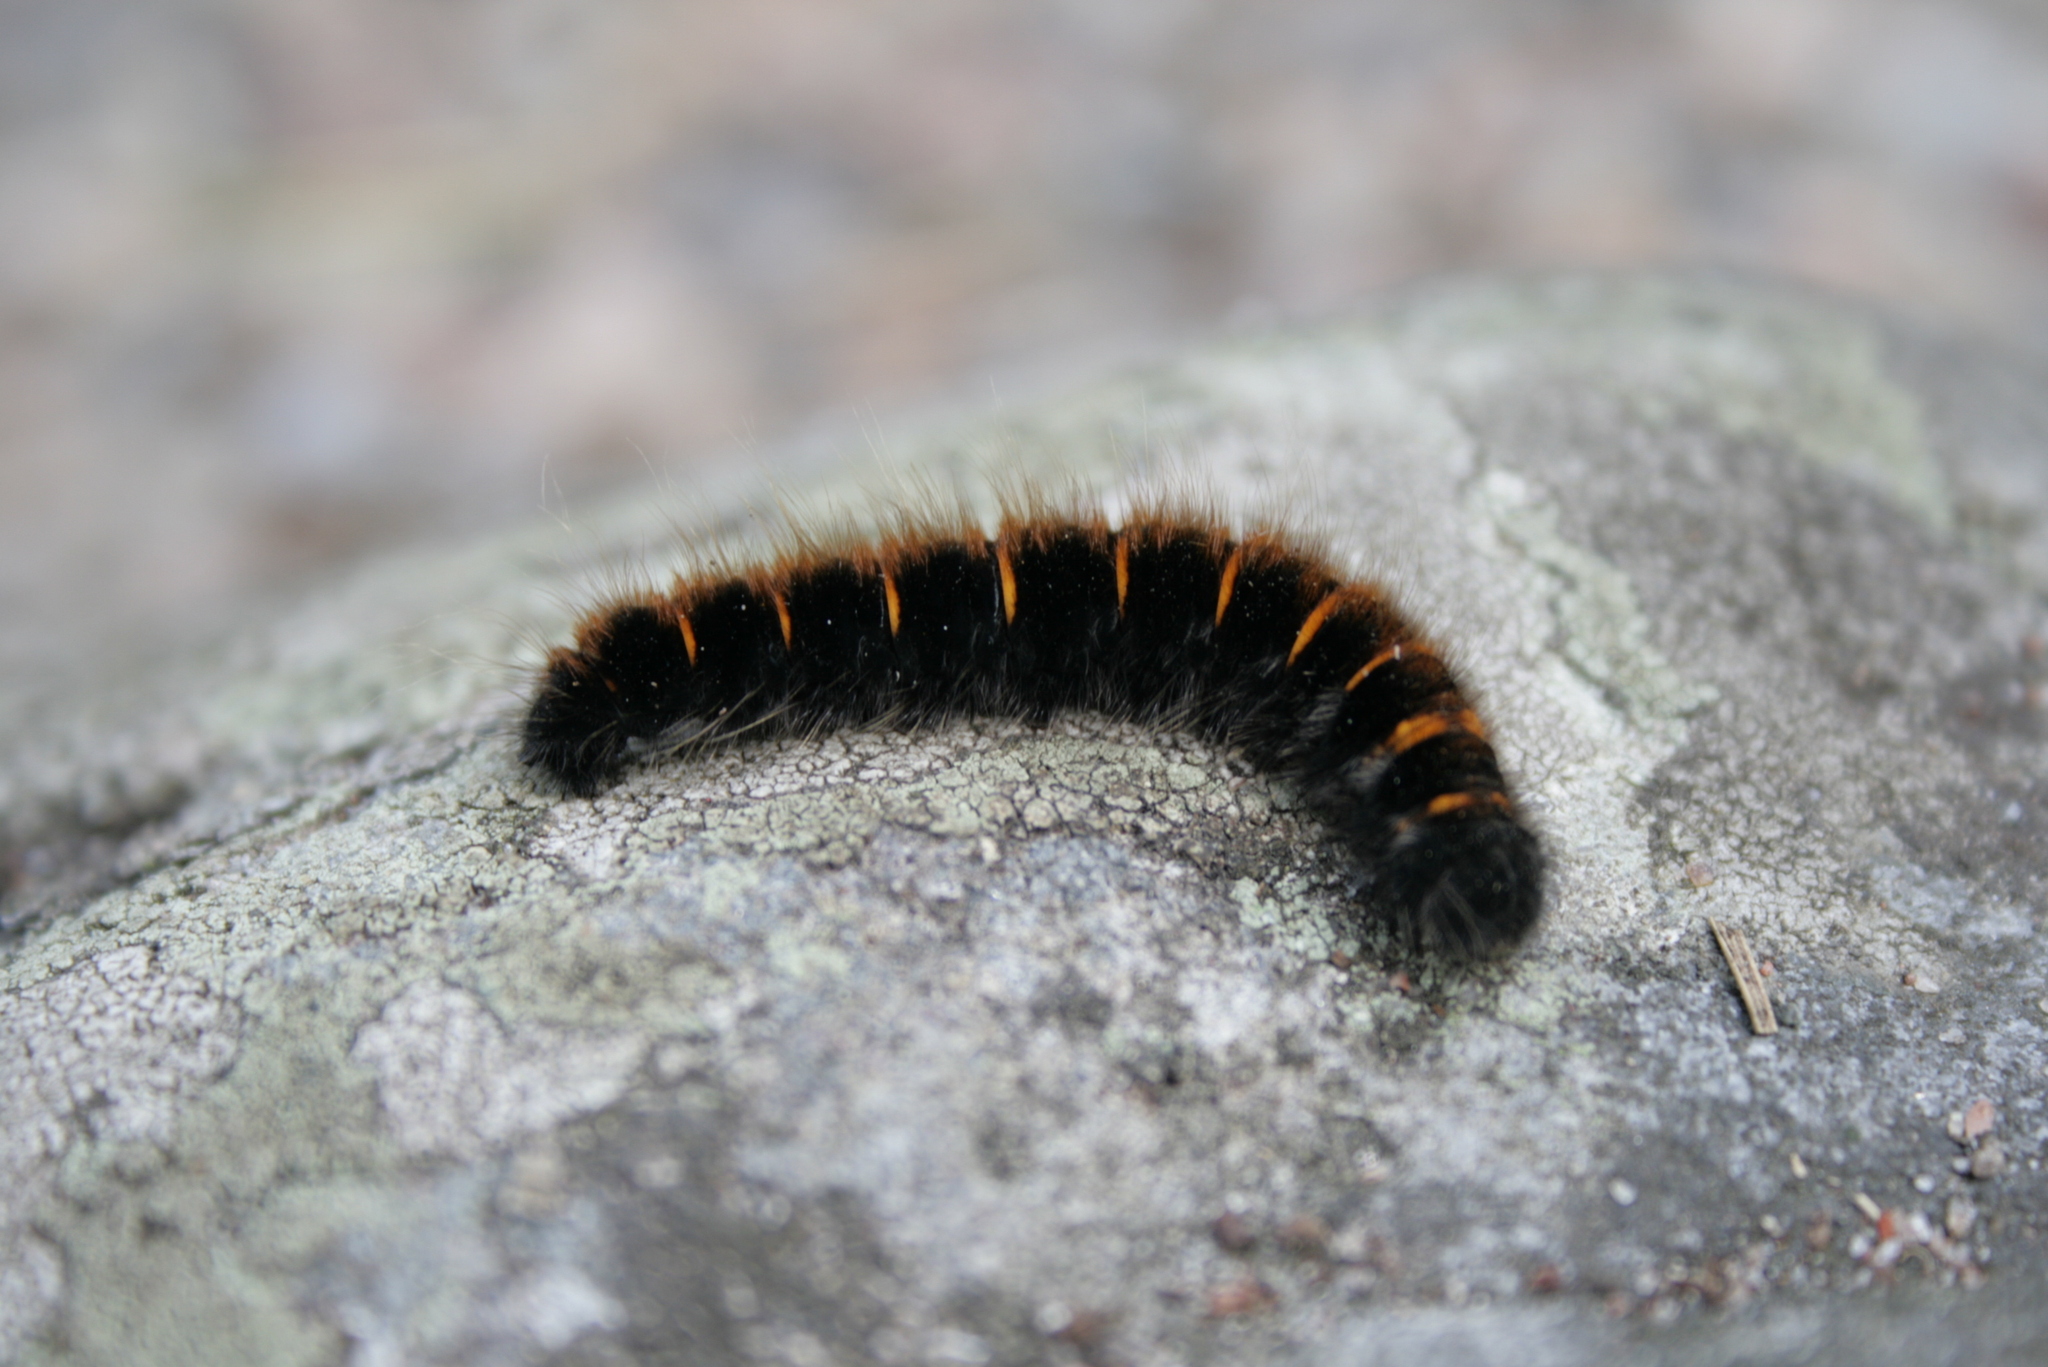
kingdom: Animalia
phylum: Arthropoda
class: Insecta
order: Lepidoptera
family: Lasiocampidae
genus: Macrothylacia
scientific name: Macrothylacia rubi
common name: Fox moth
